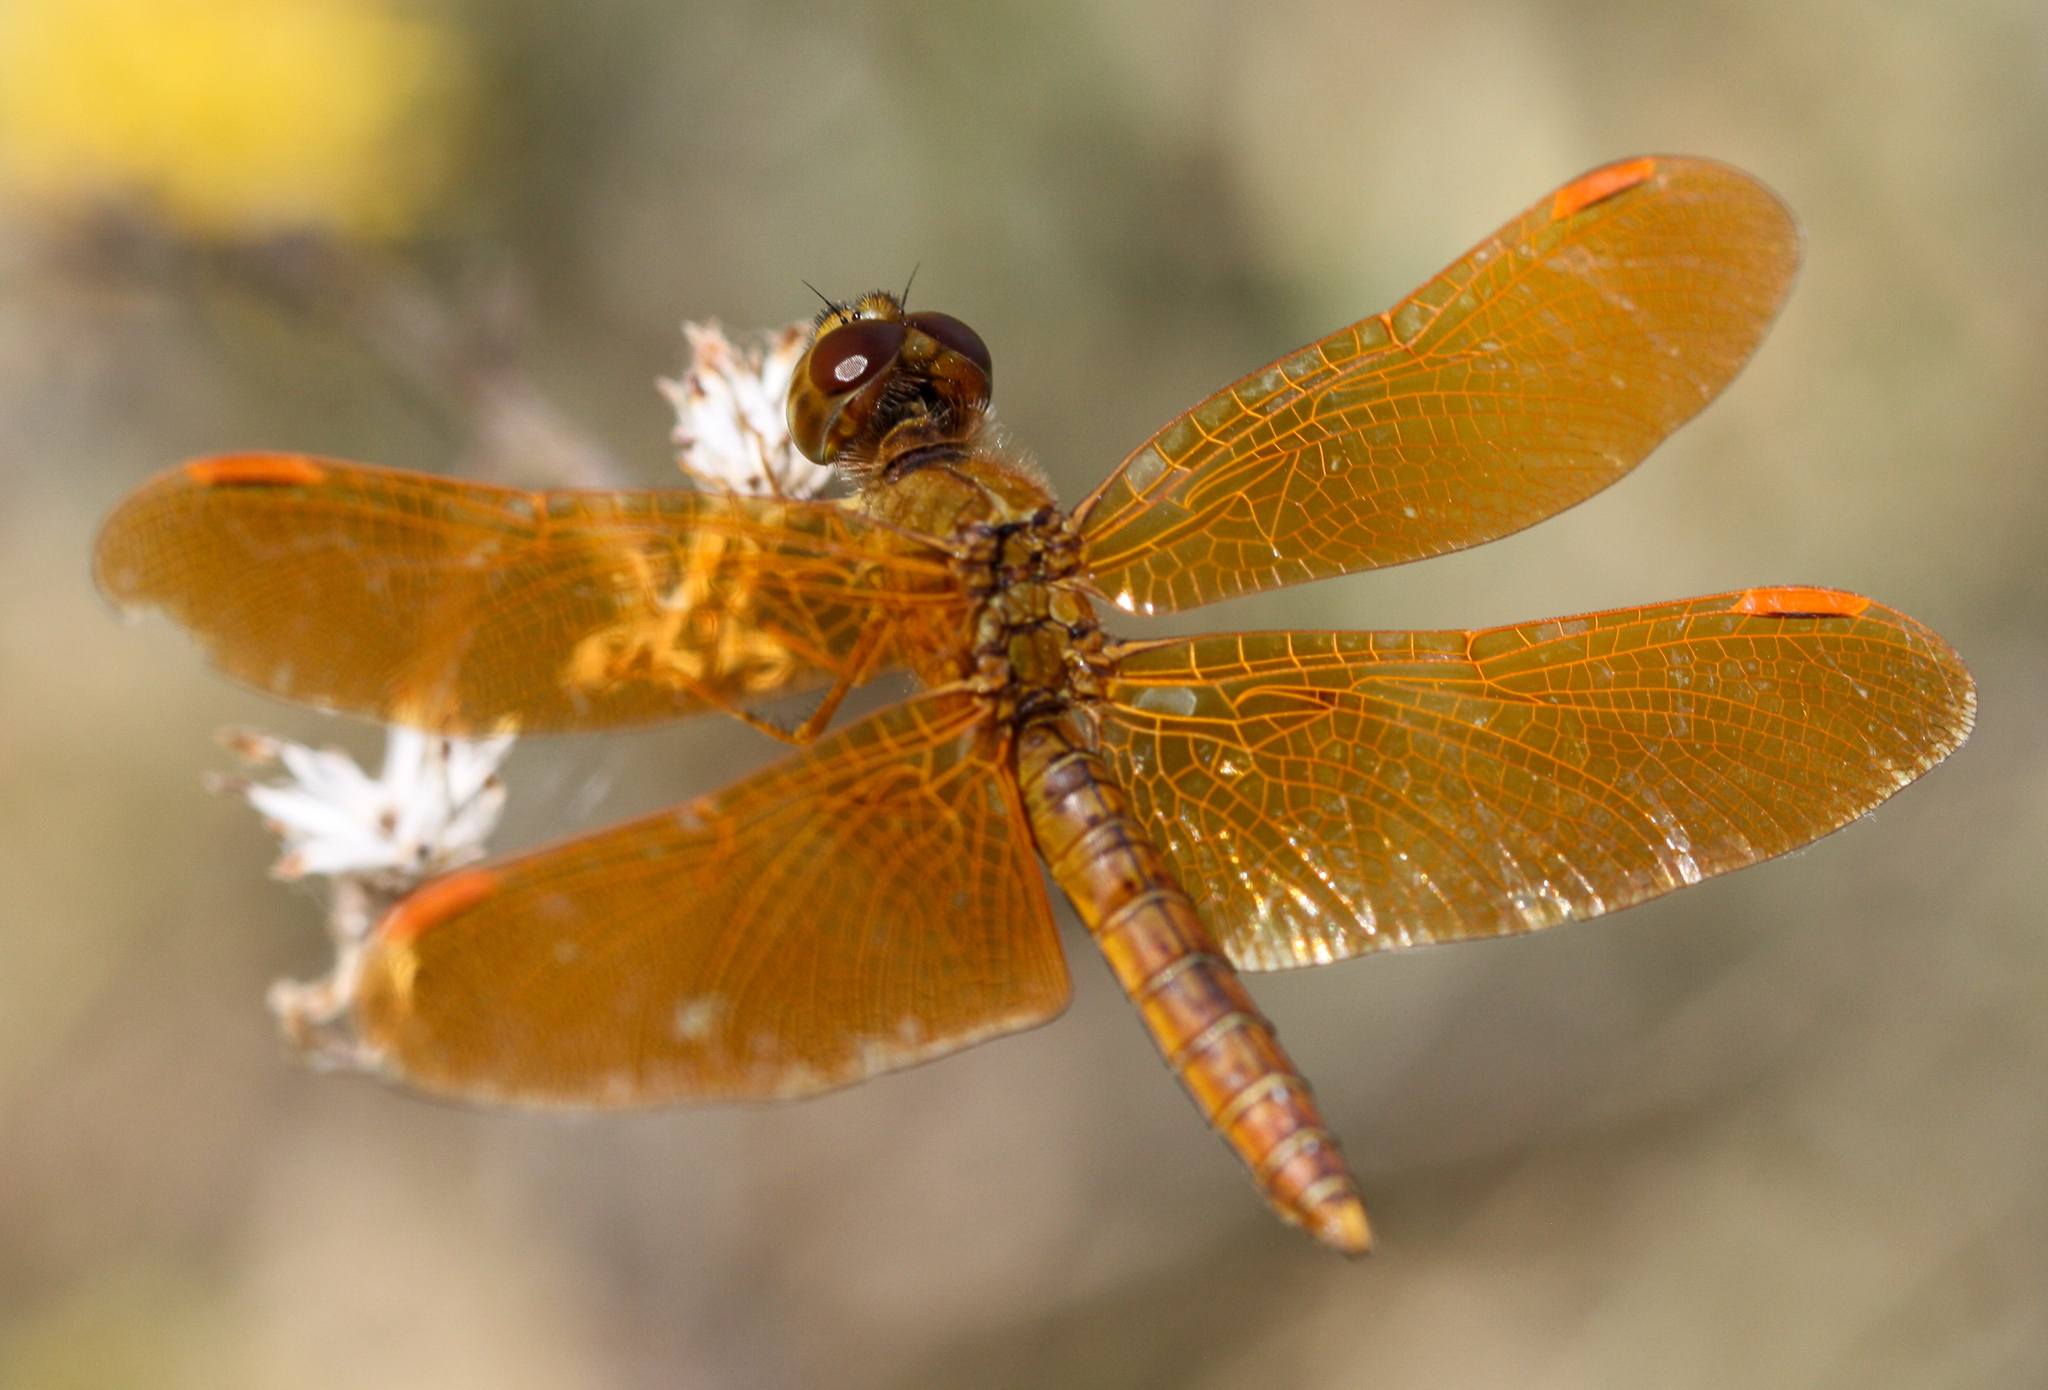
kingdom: Animalia
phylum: Arthropoda
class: Insecta
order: Odonata
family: Libellulidae
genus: Perithemis
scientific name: Perithemis intensa
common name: Mexican amberwing
